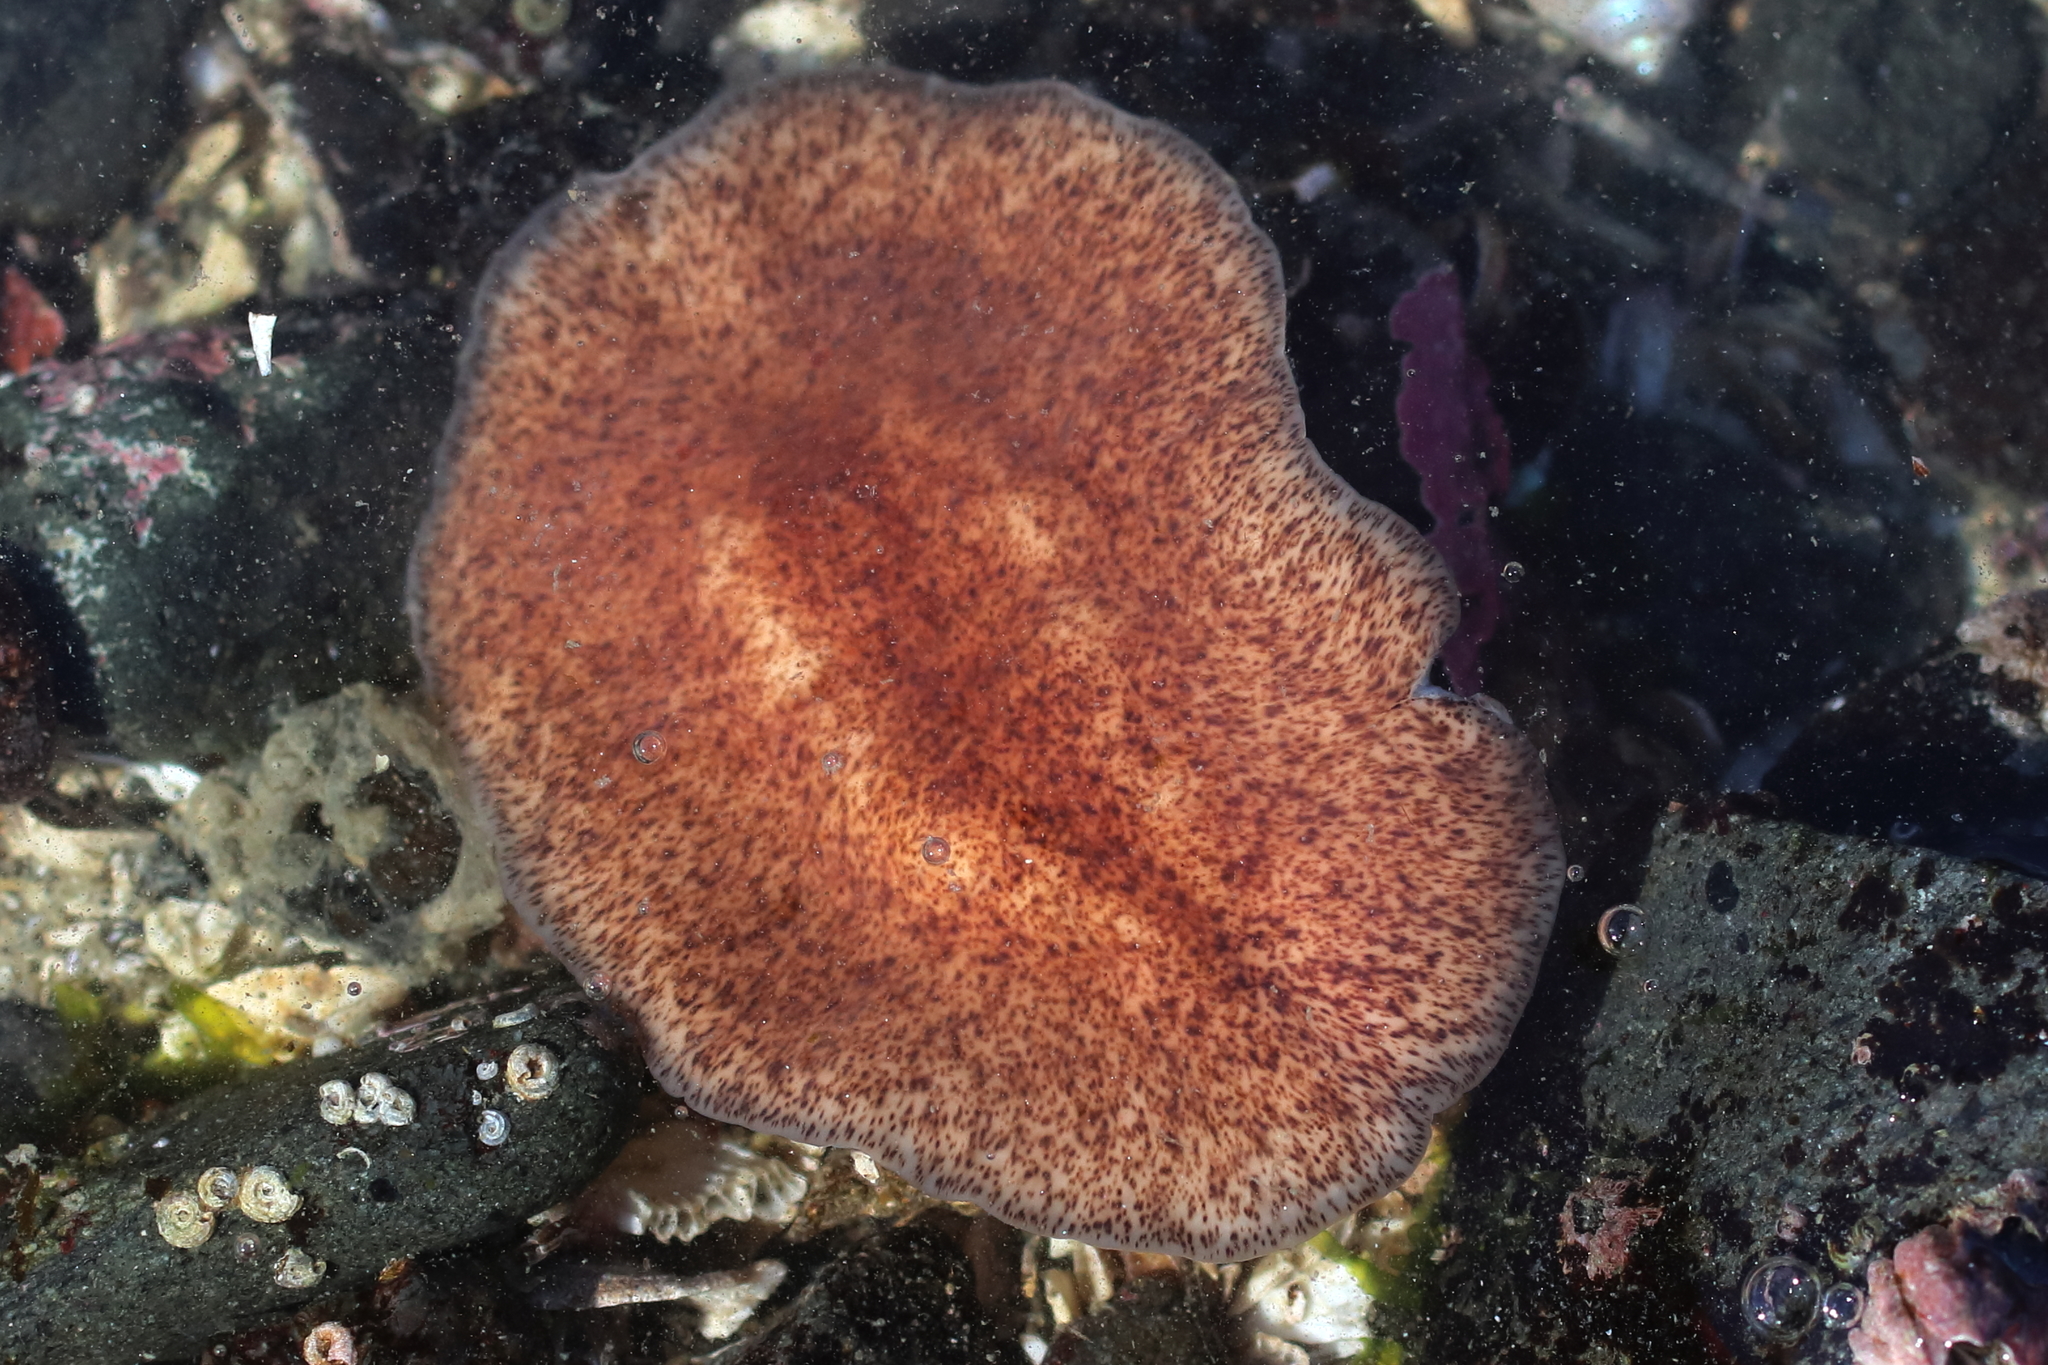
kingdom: Animalia
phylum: Platyhelminthes
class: Turbellaria
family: Callioplanidae
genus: Kaburakia
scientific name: Kaburakia excelsa
